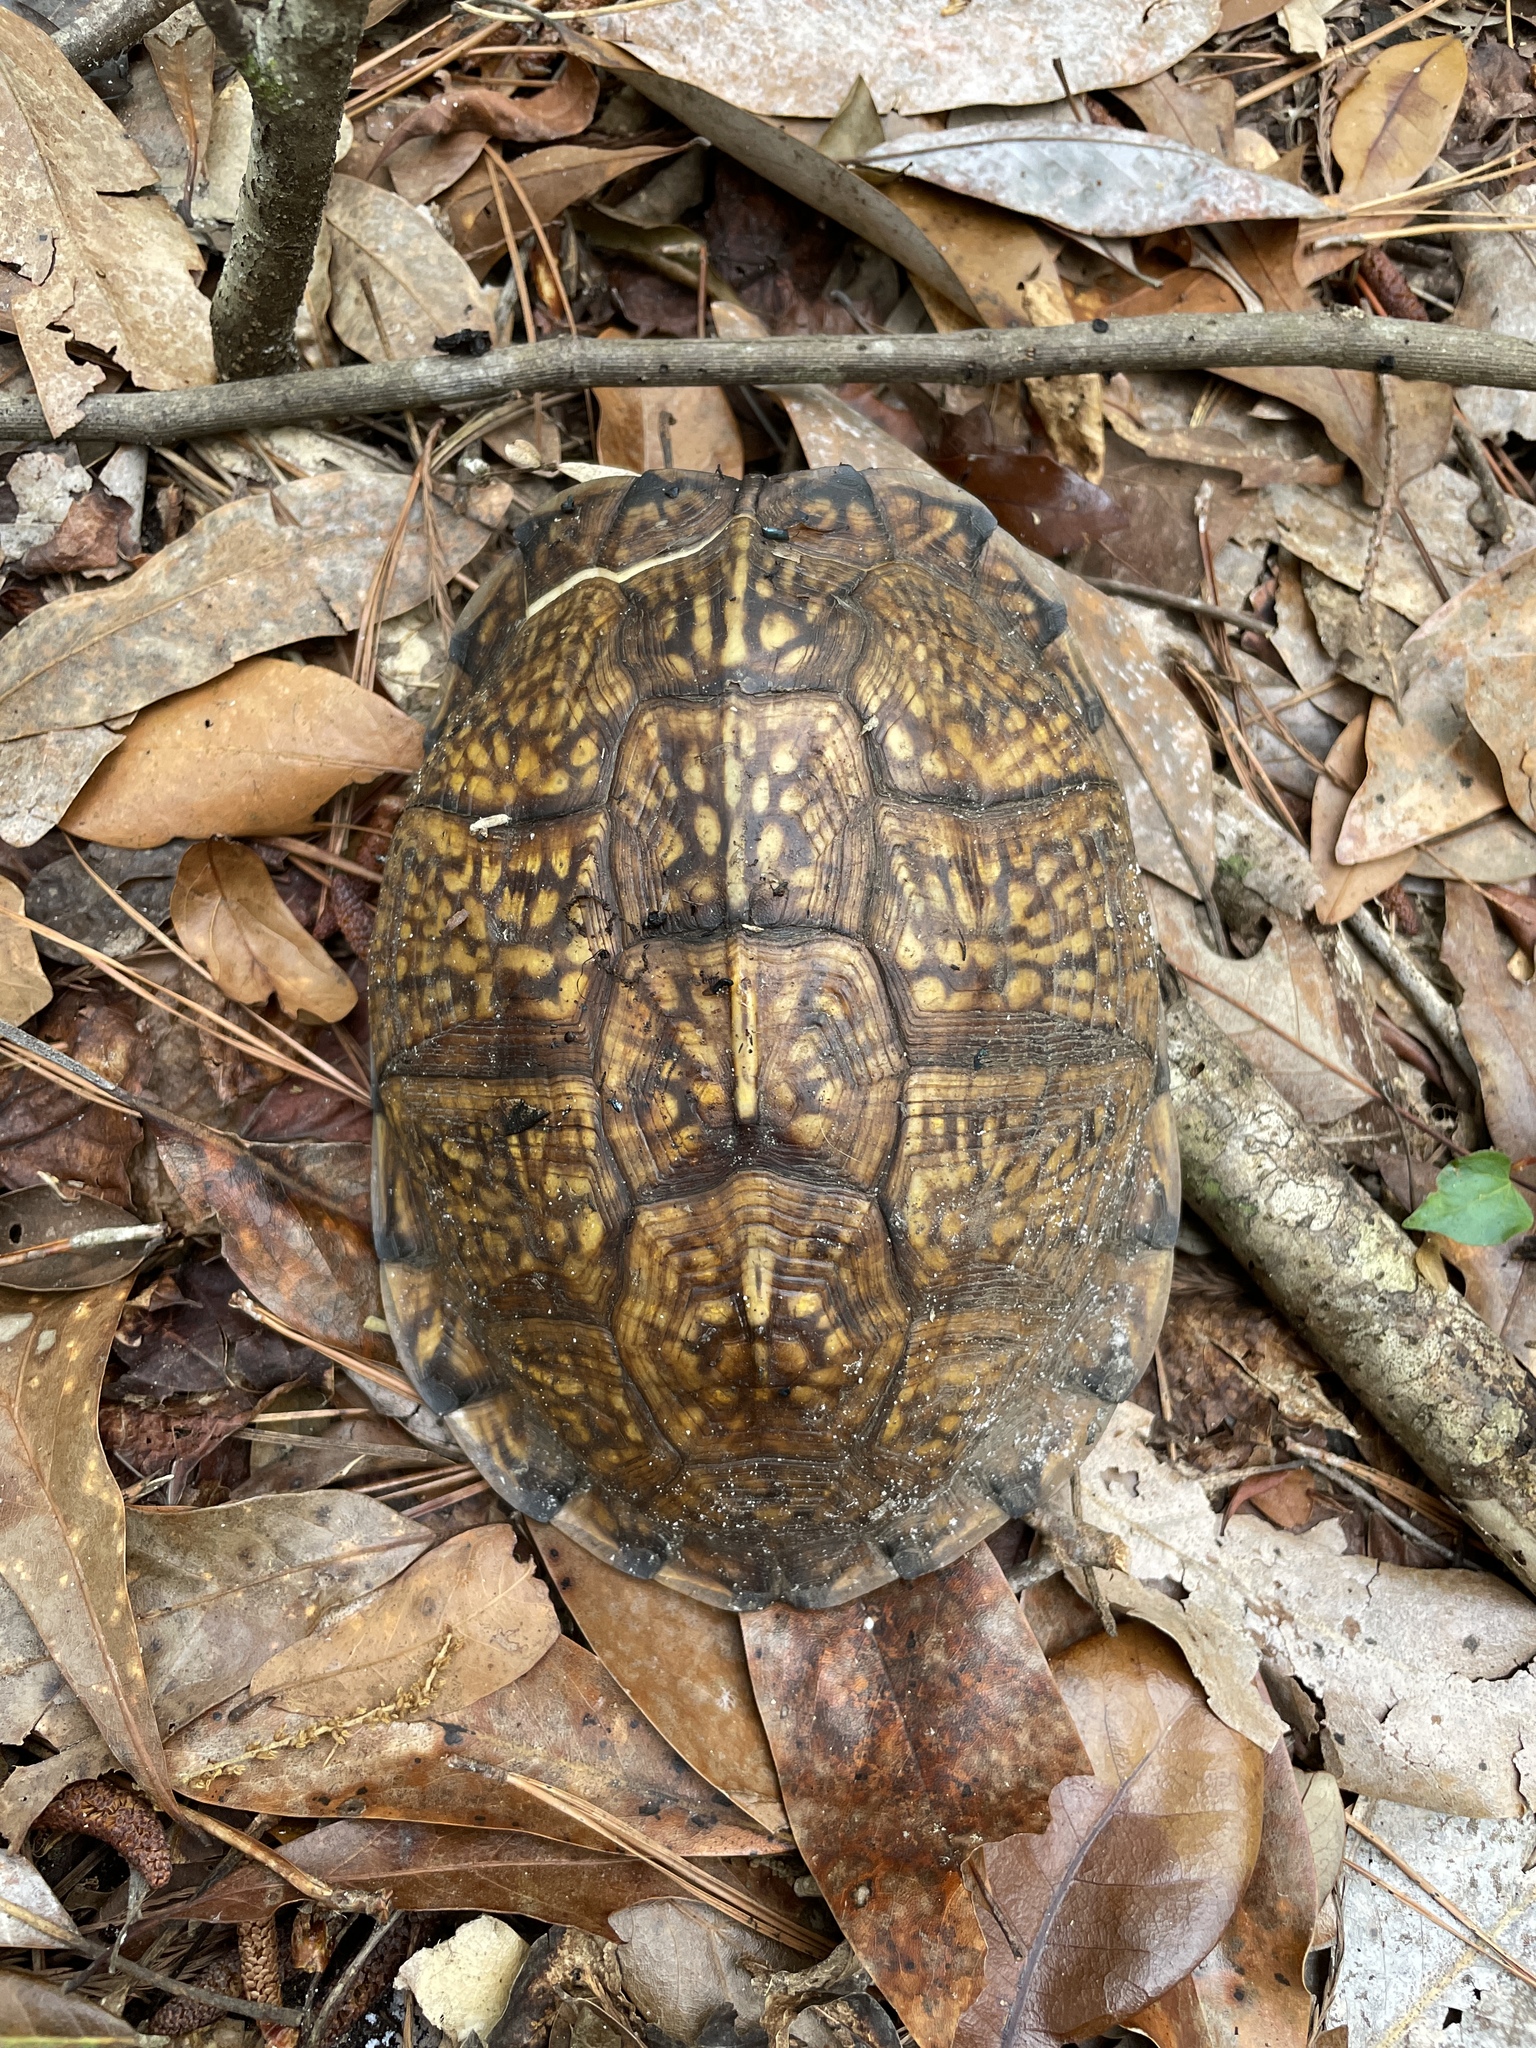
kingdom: Animalia
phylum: Chordata
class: Testudines
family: Emydidae
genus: Terrapene
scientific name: Terrapene carolina
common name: Common box turtle
